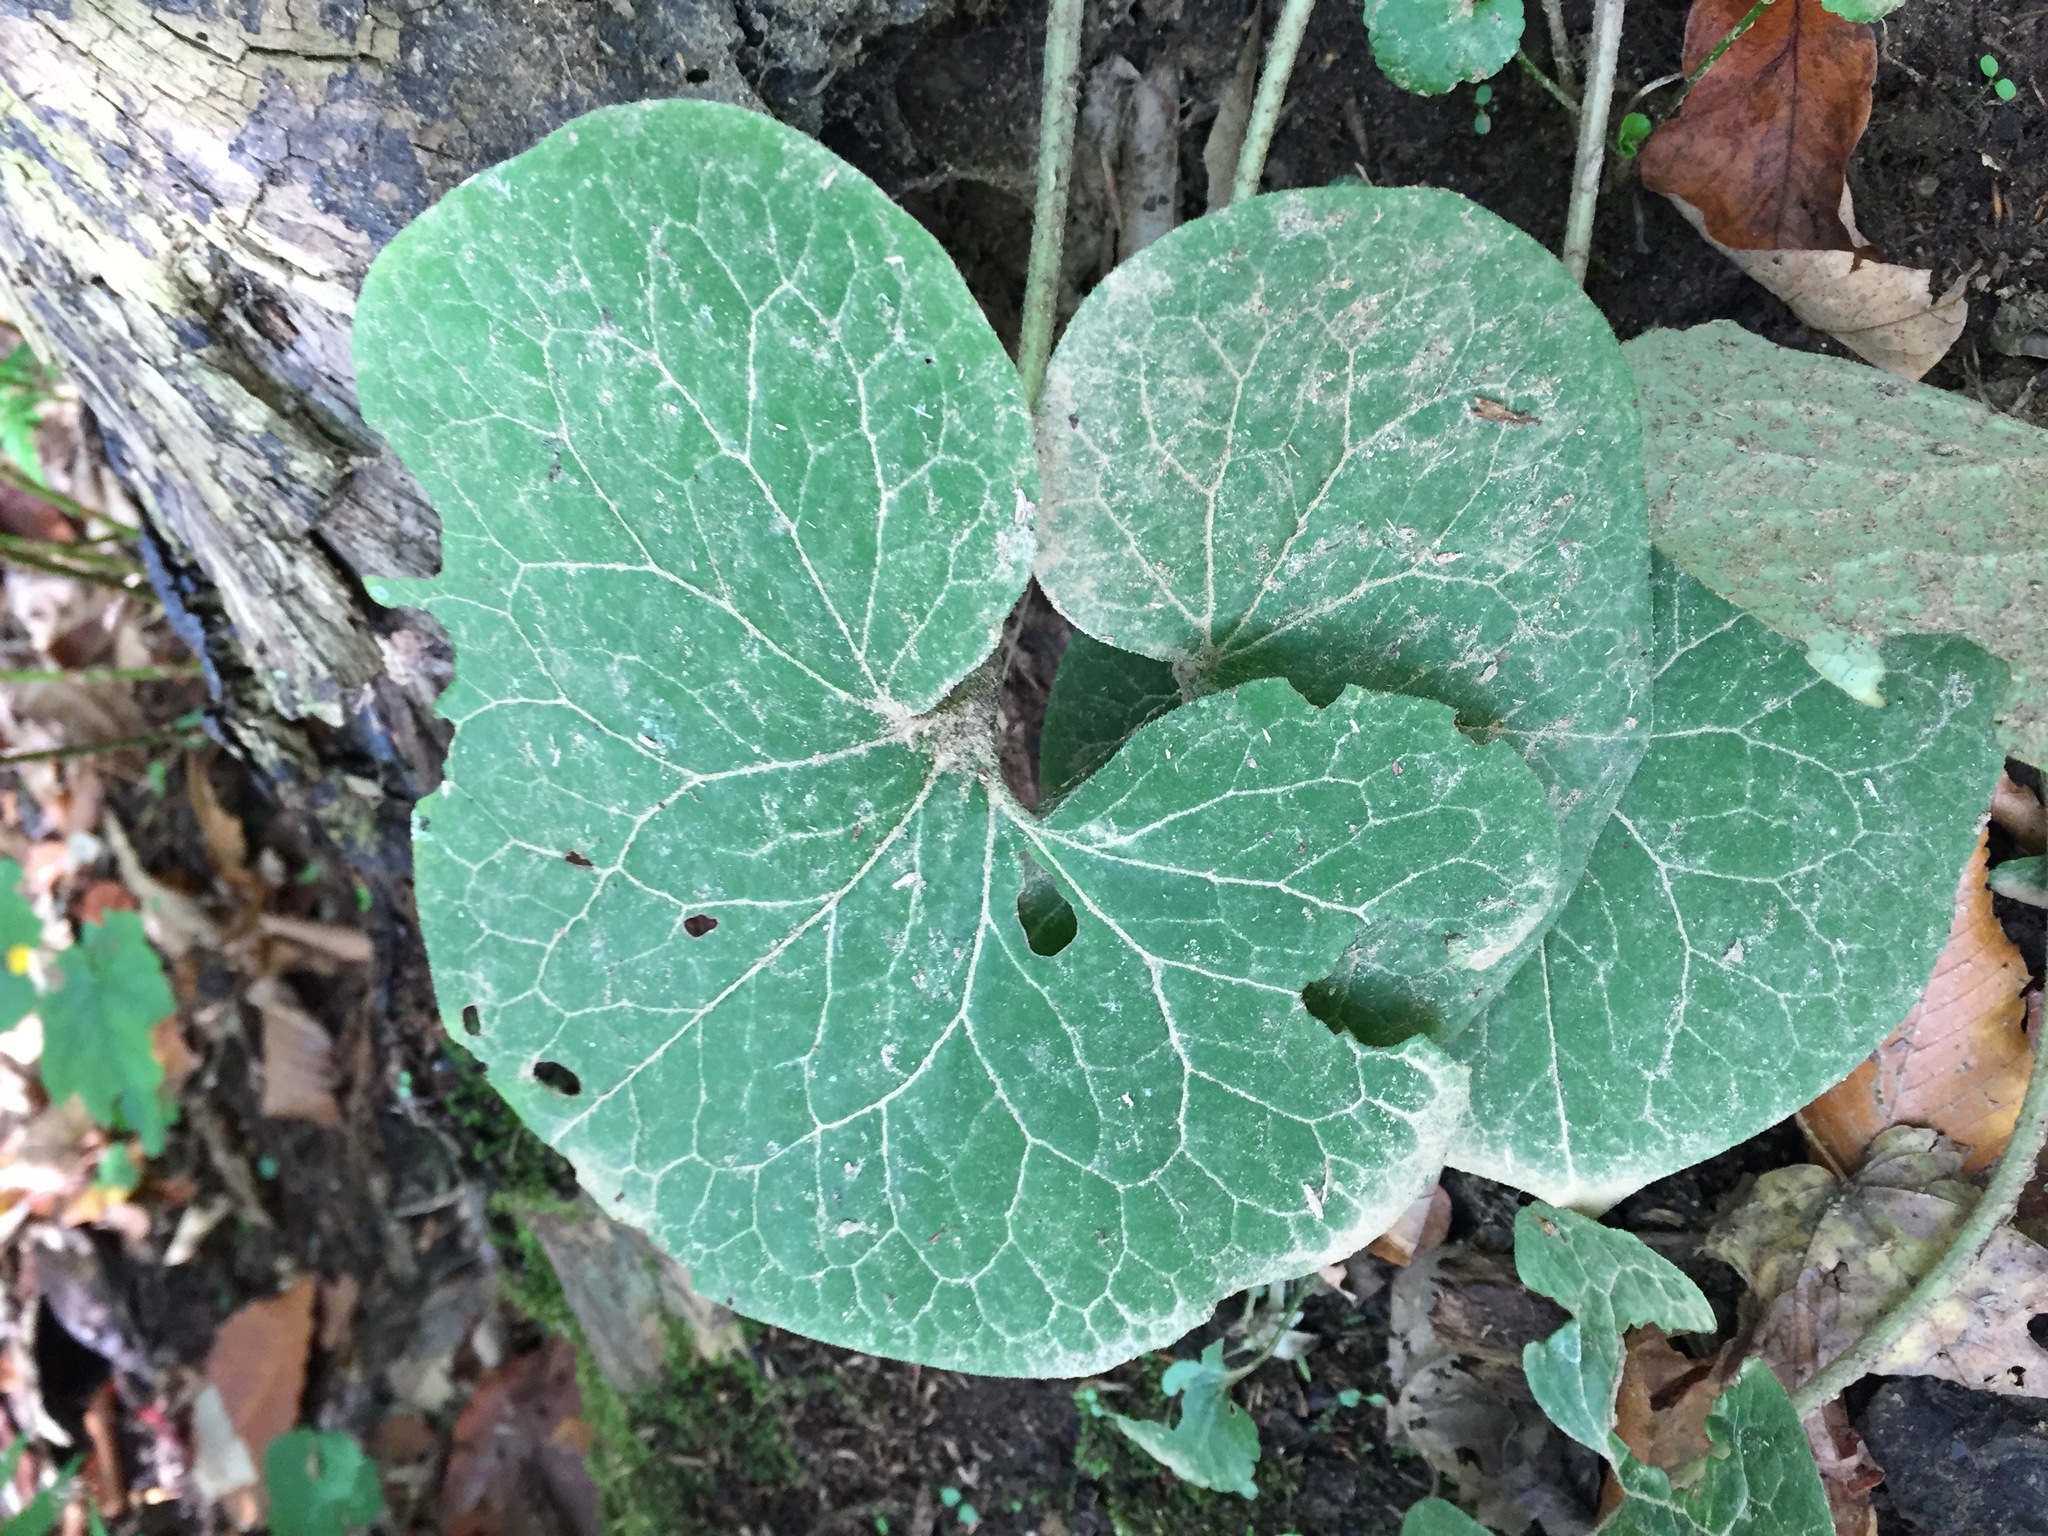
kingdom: Plantae
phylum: Tracheophyta
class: Magnoliopsida
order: Piperales
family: Aristolochiaceae
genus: Asarum
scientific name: Asarum canadense
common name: Wild ginger
